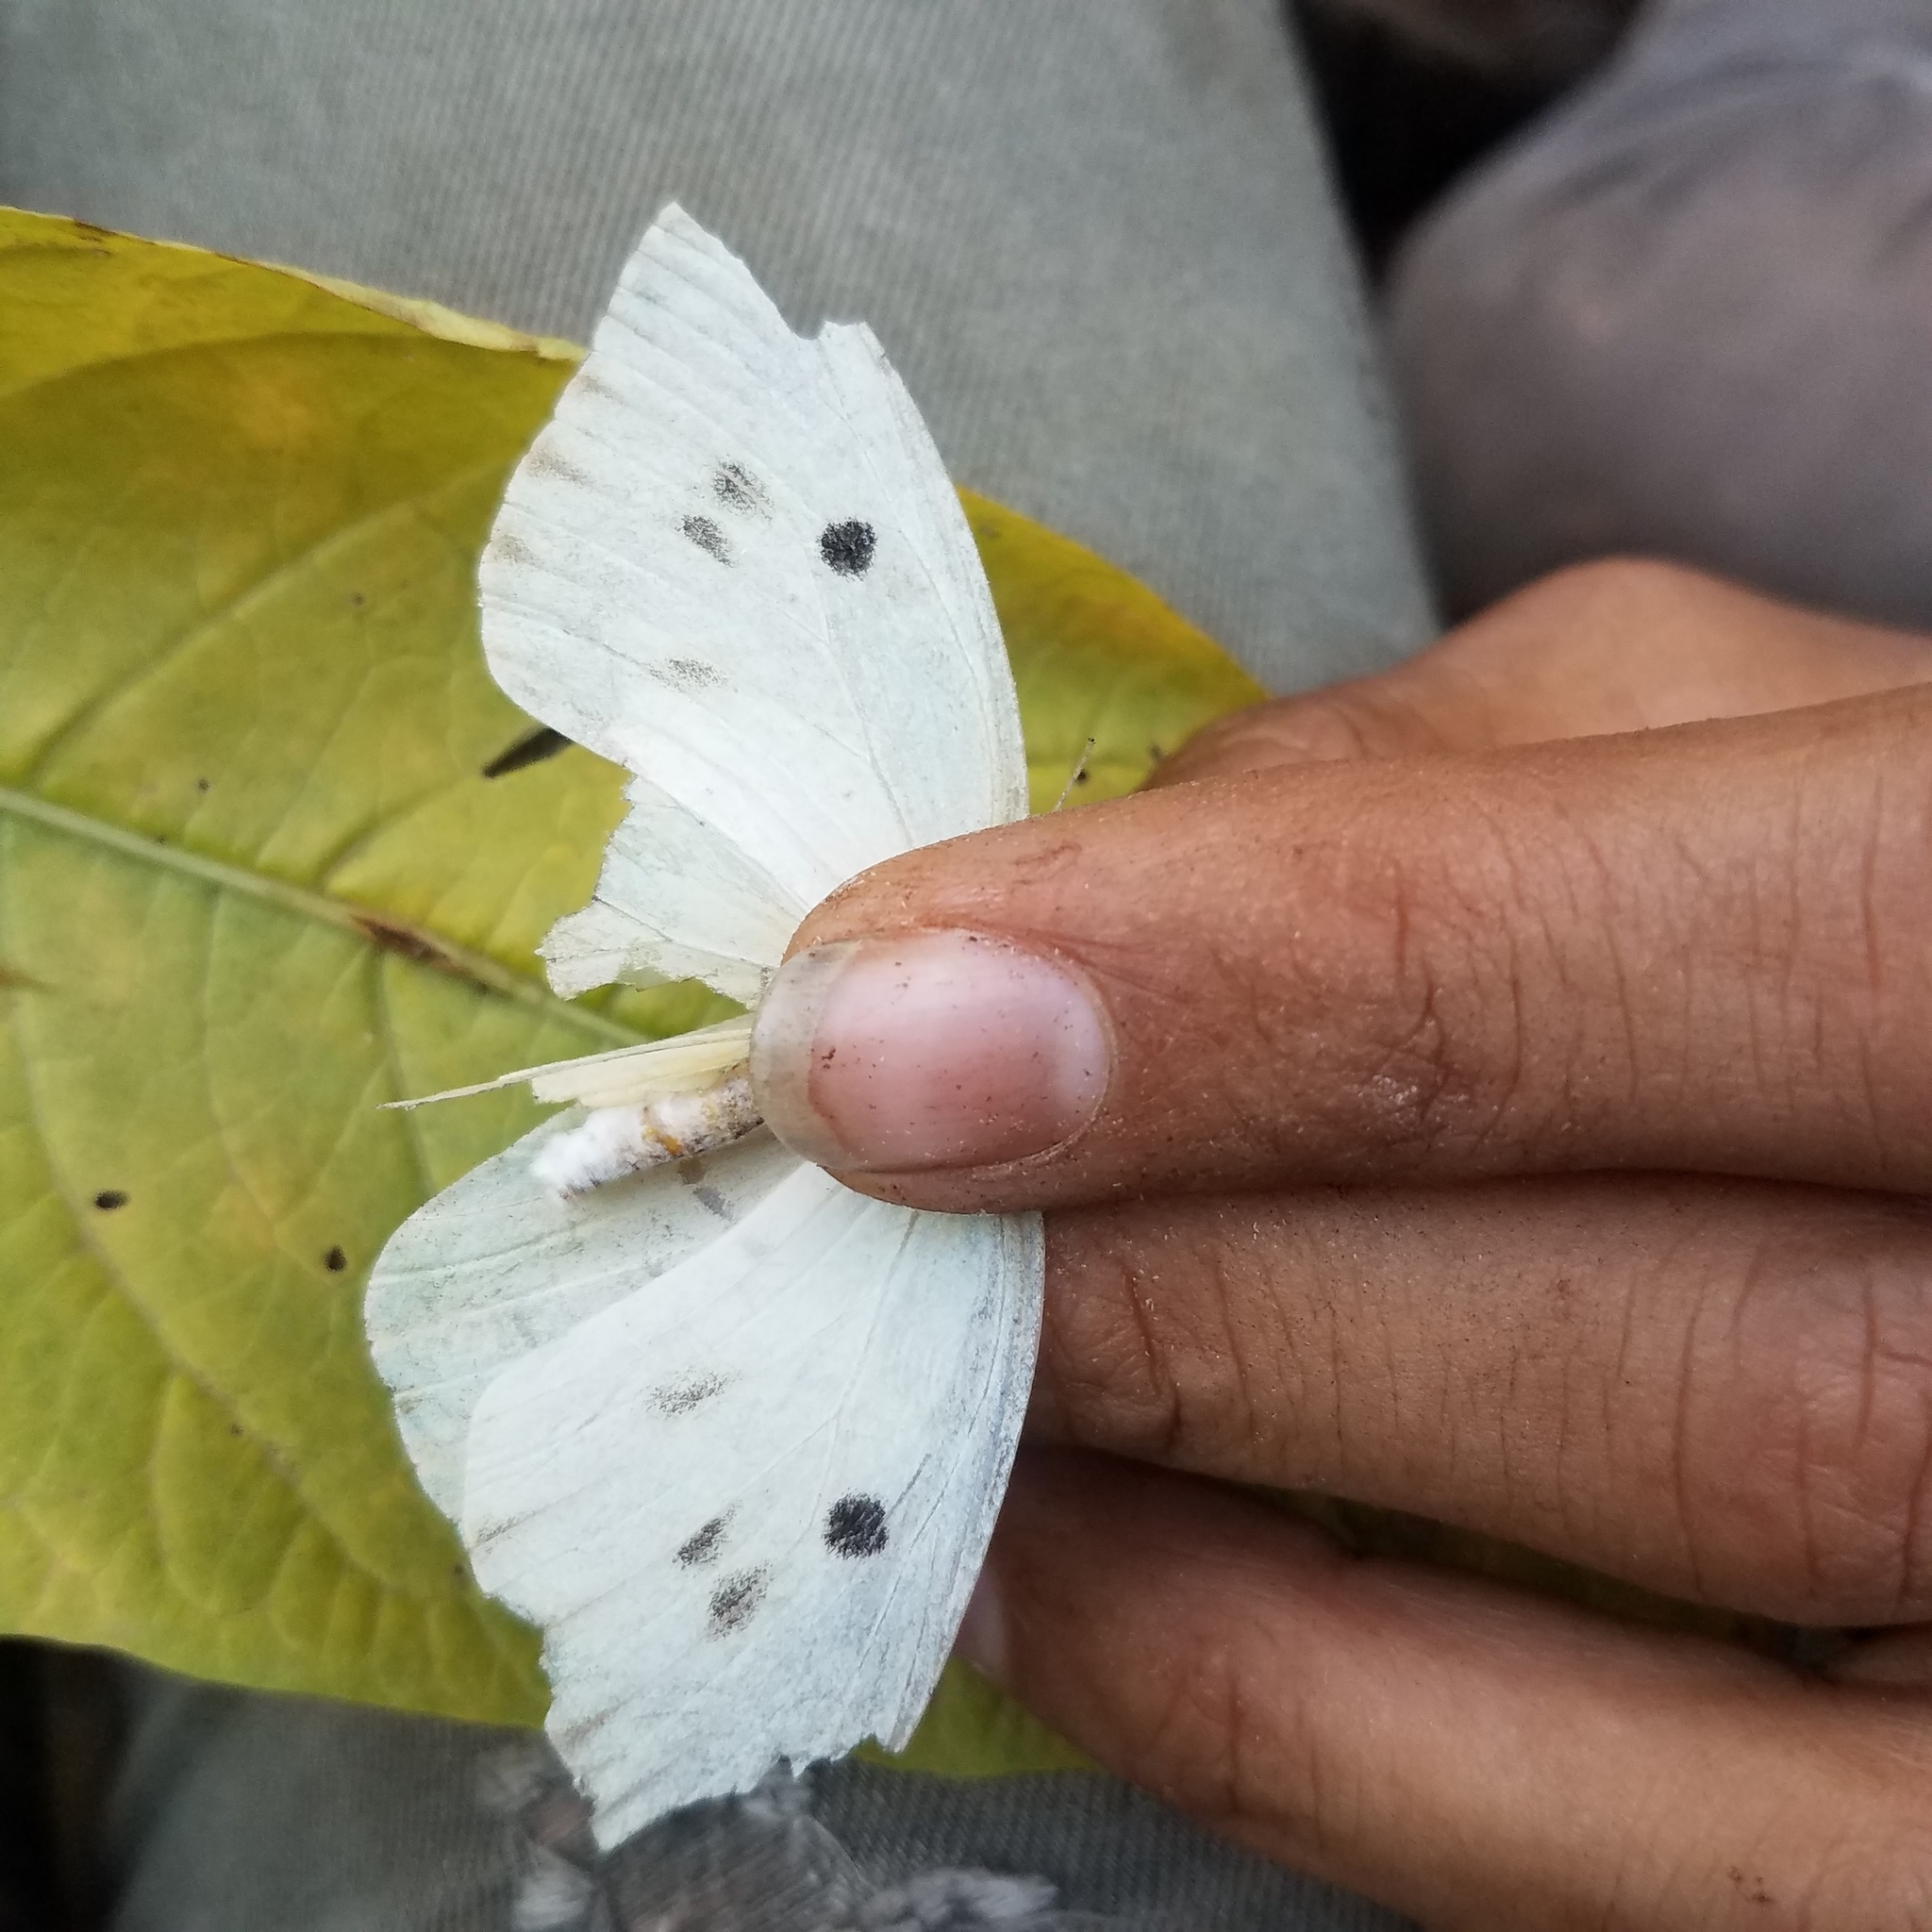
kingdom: Animalia
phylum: Arthropoda
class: Insecta
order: Lepidoptera
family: Pieridae
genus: Ganyra
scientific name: Ganyra josephina
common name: Giant white
